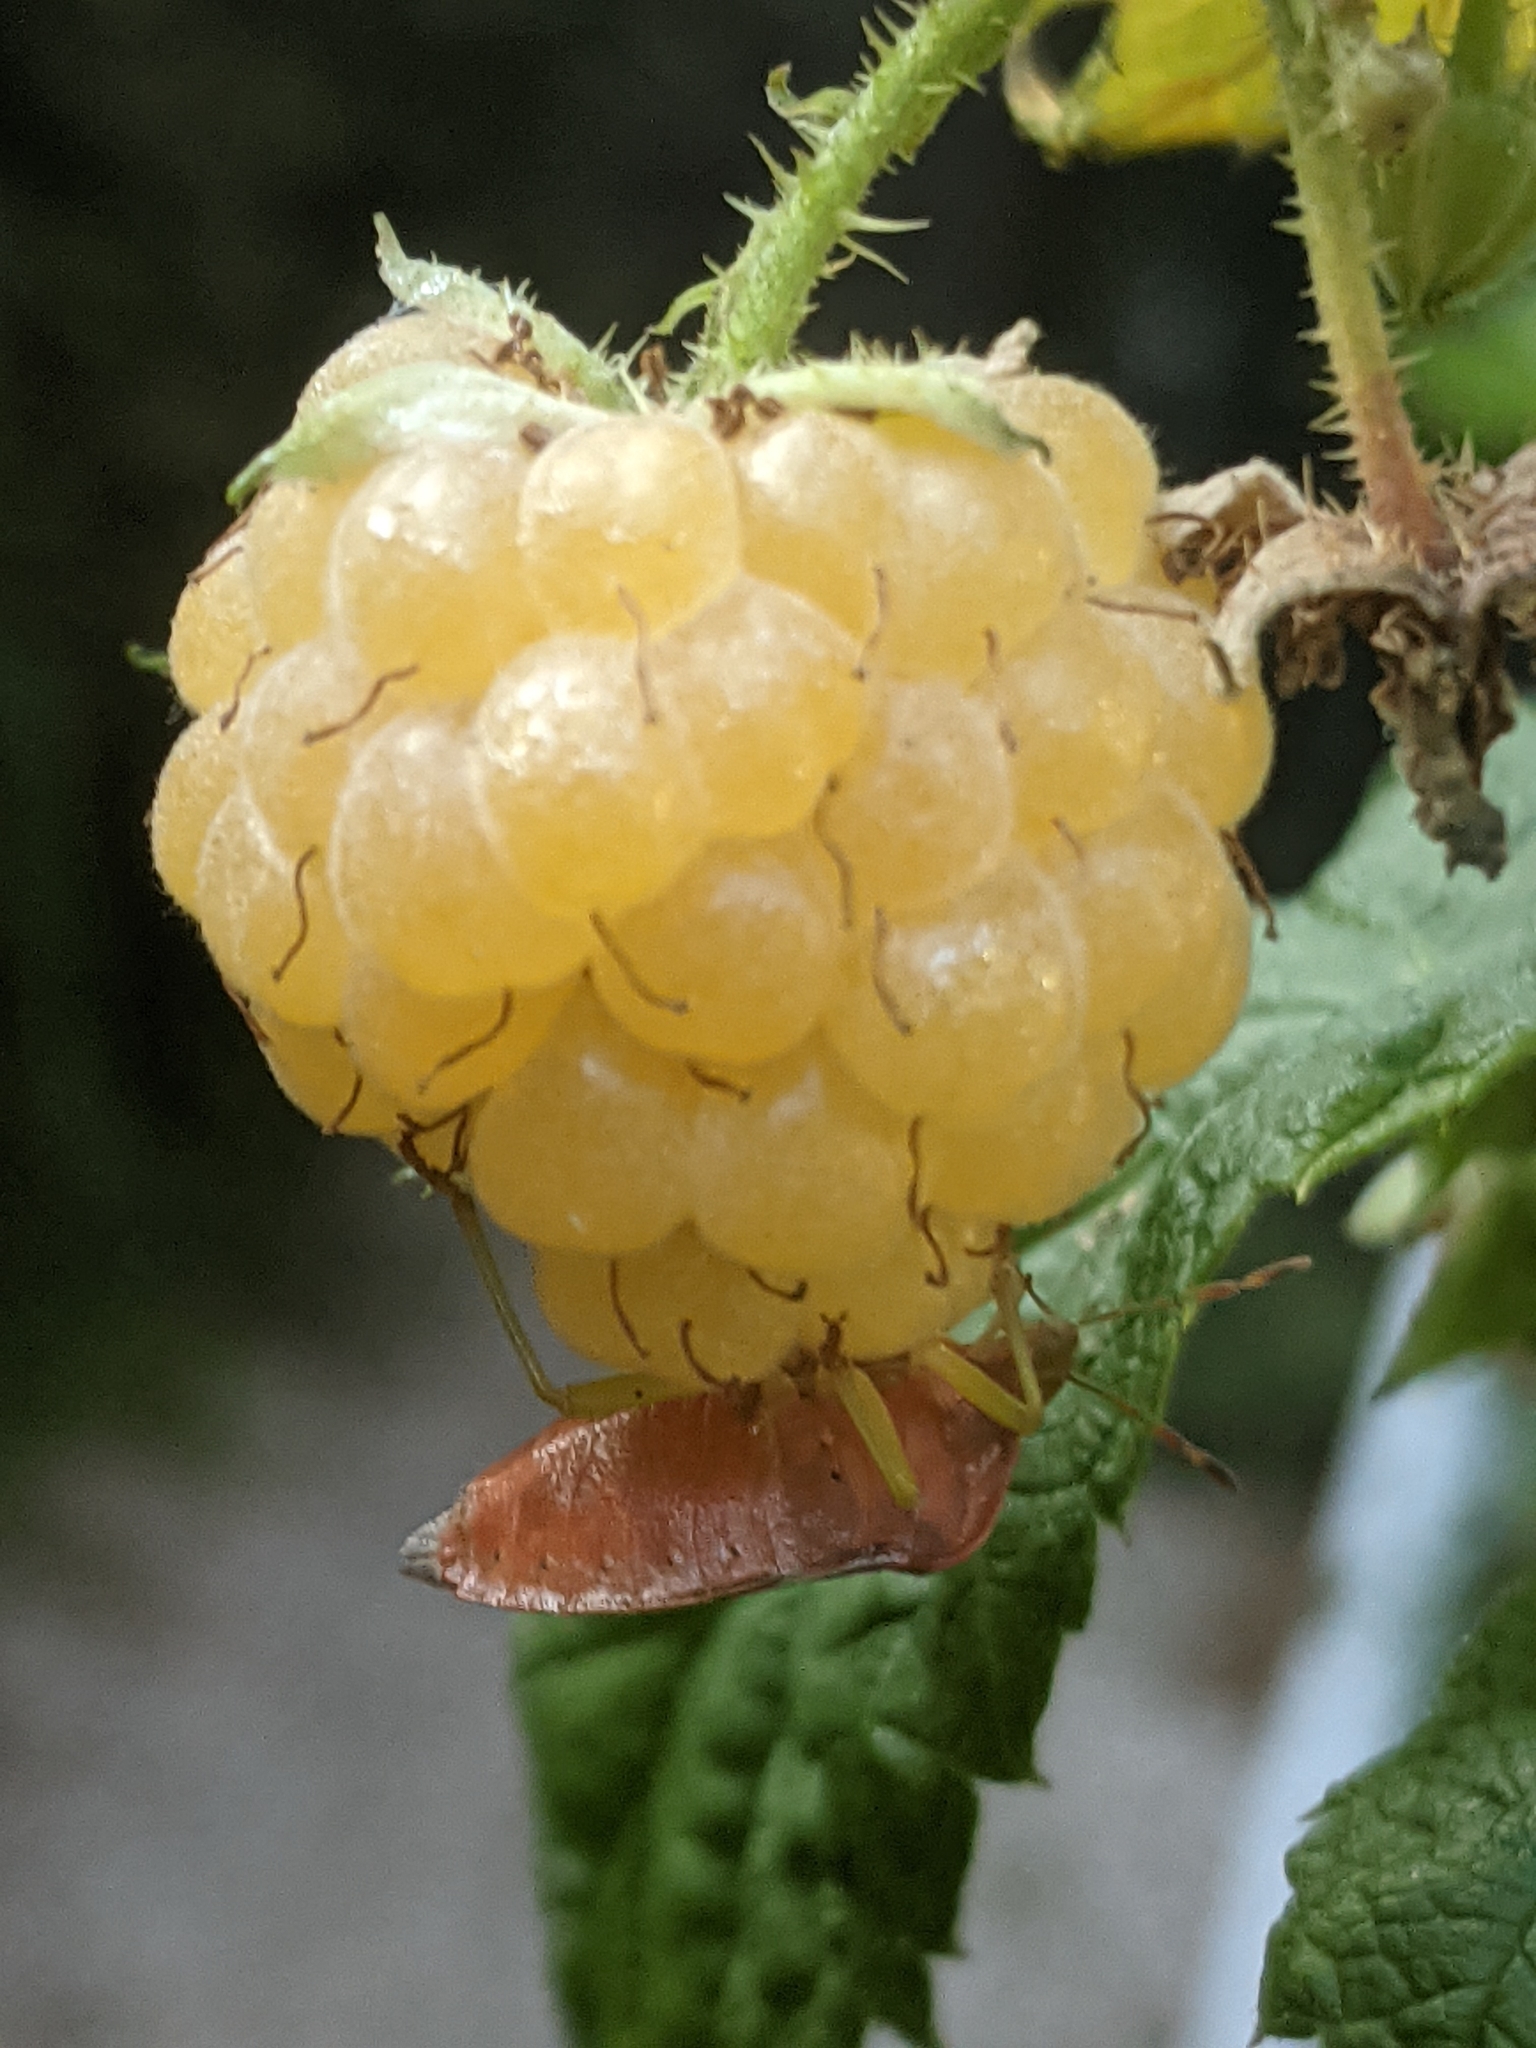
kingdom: Animalia
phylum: Arthropoda
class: Insecta
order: Hemiptera
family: Pentatomidae
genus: Palomena
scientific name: Palomena prasina
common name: Green shieldbug
